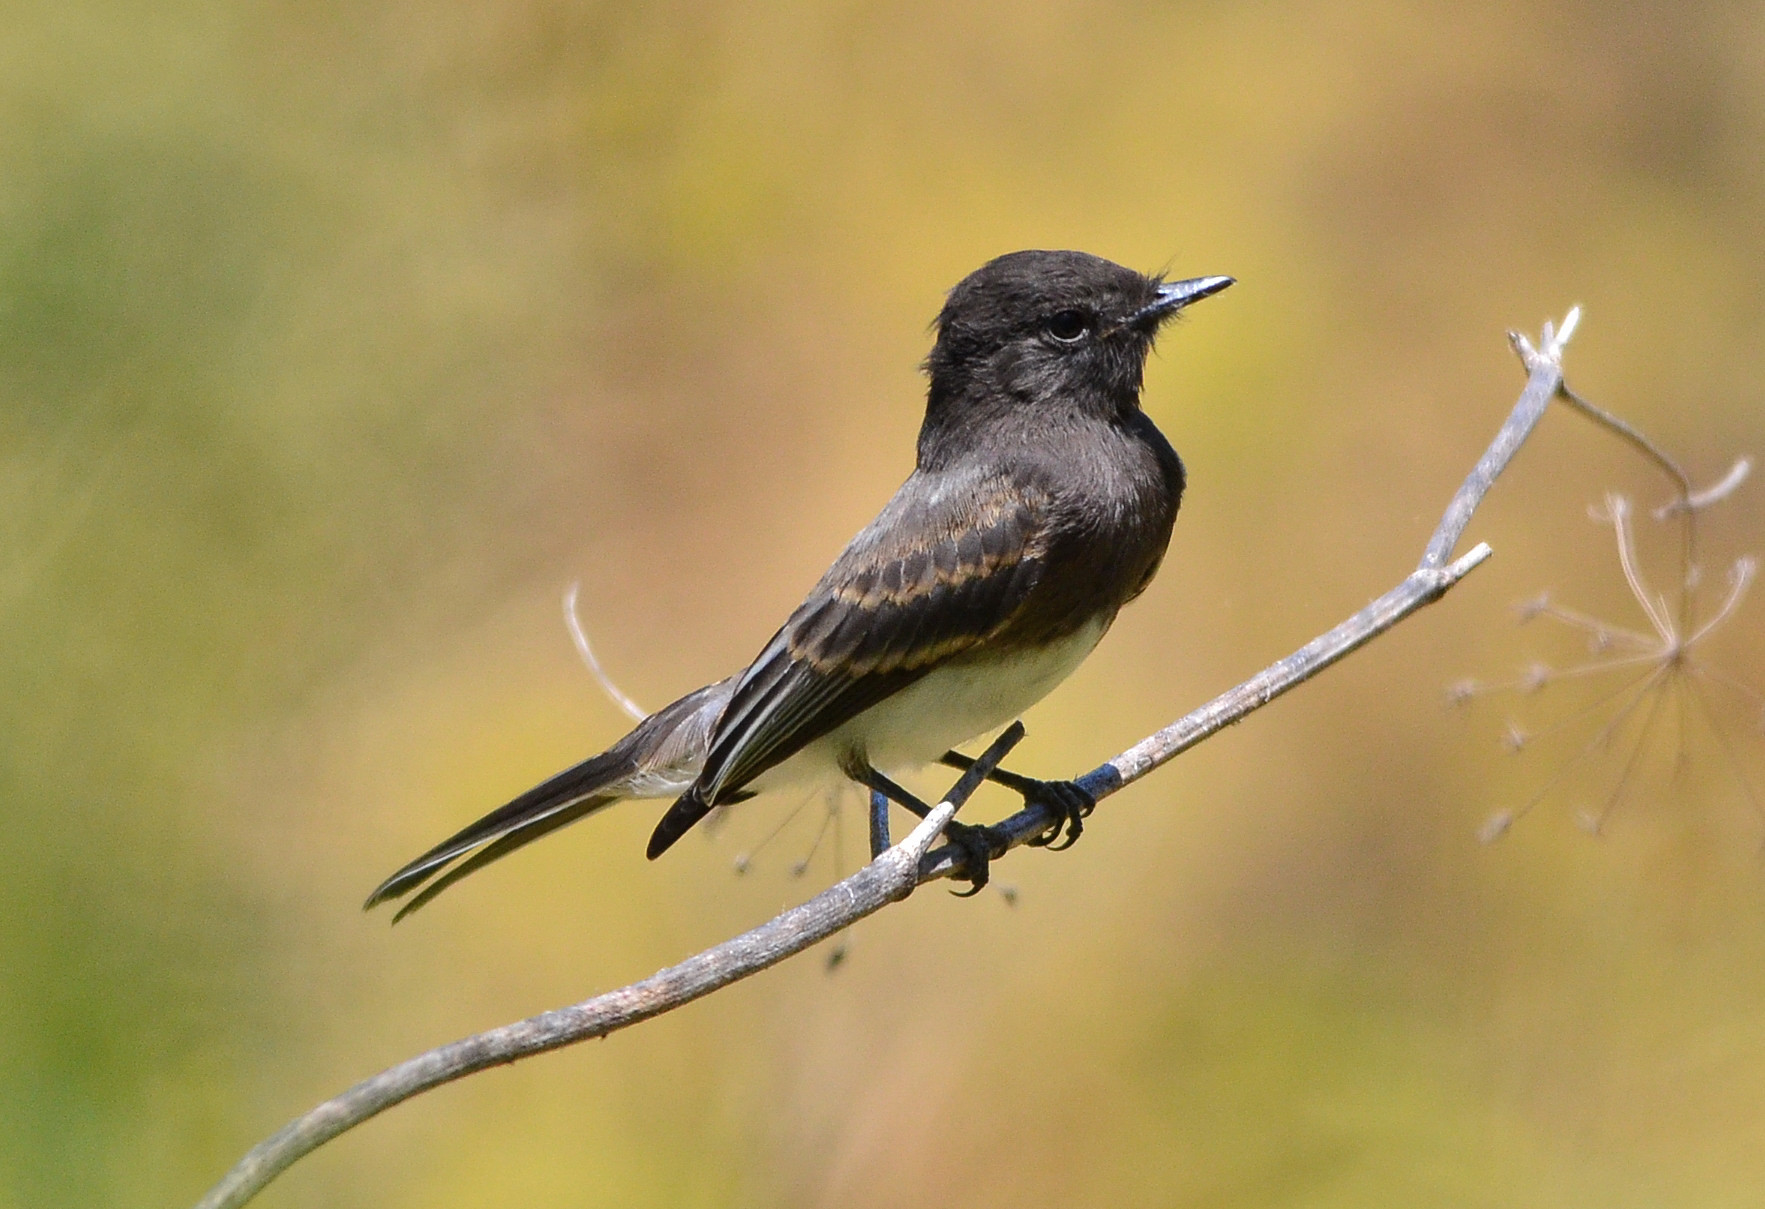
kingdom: Animalia
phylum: Chordata
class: Aves
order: Passeriformes
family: Tyrannidae
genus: Sayornis
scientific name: Sayornis nigricans
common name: Black phoebe
